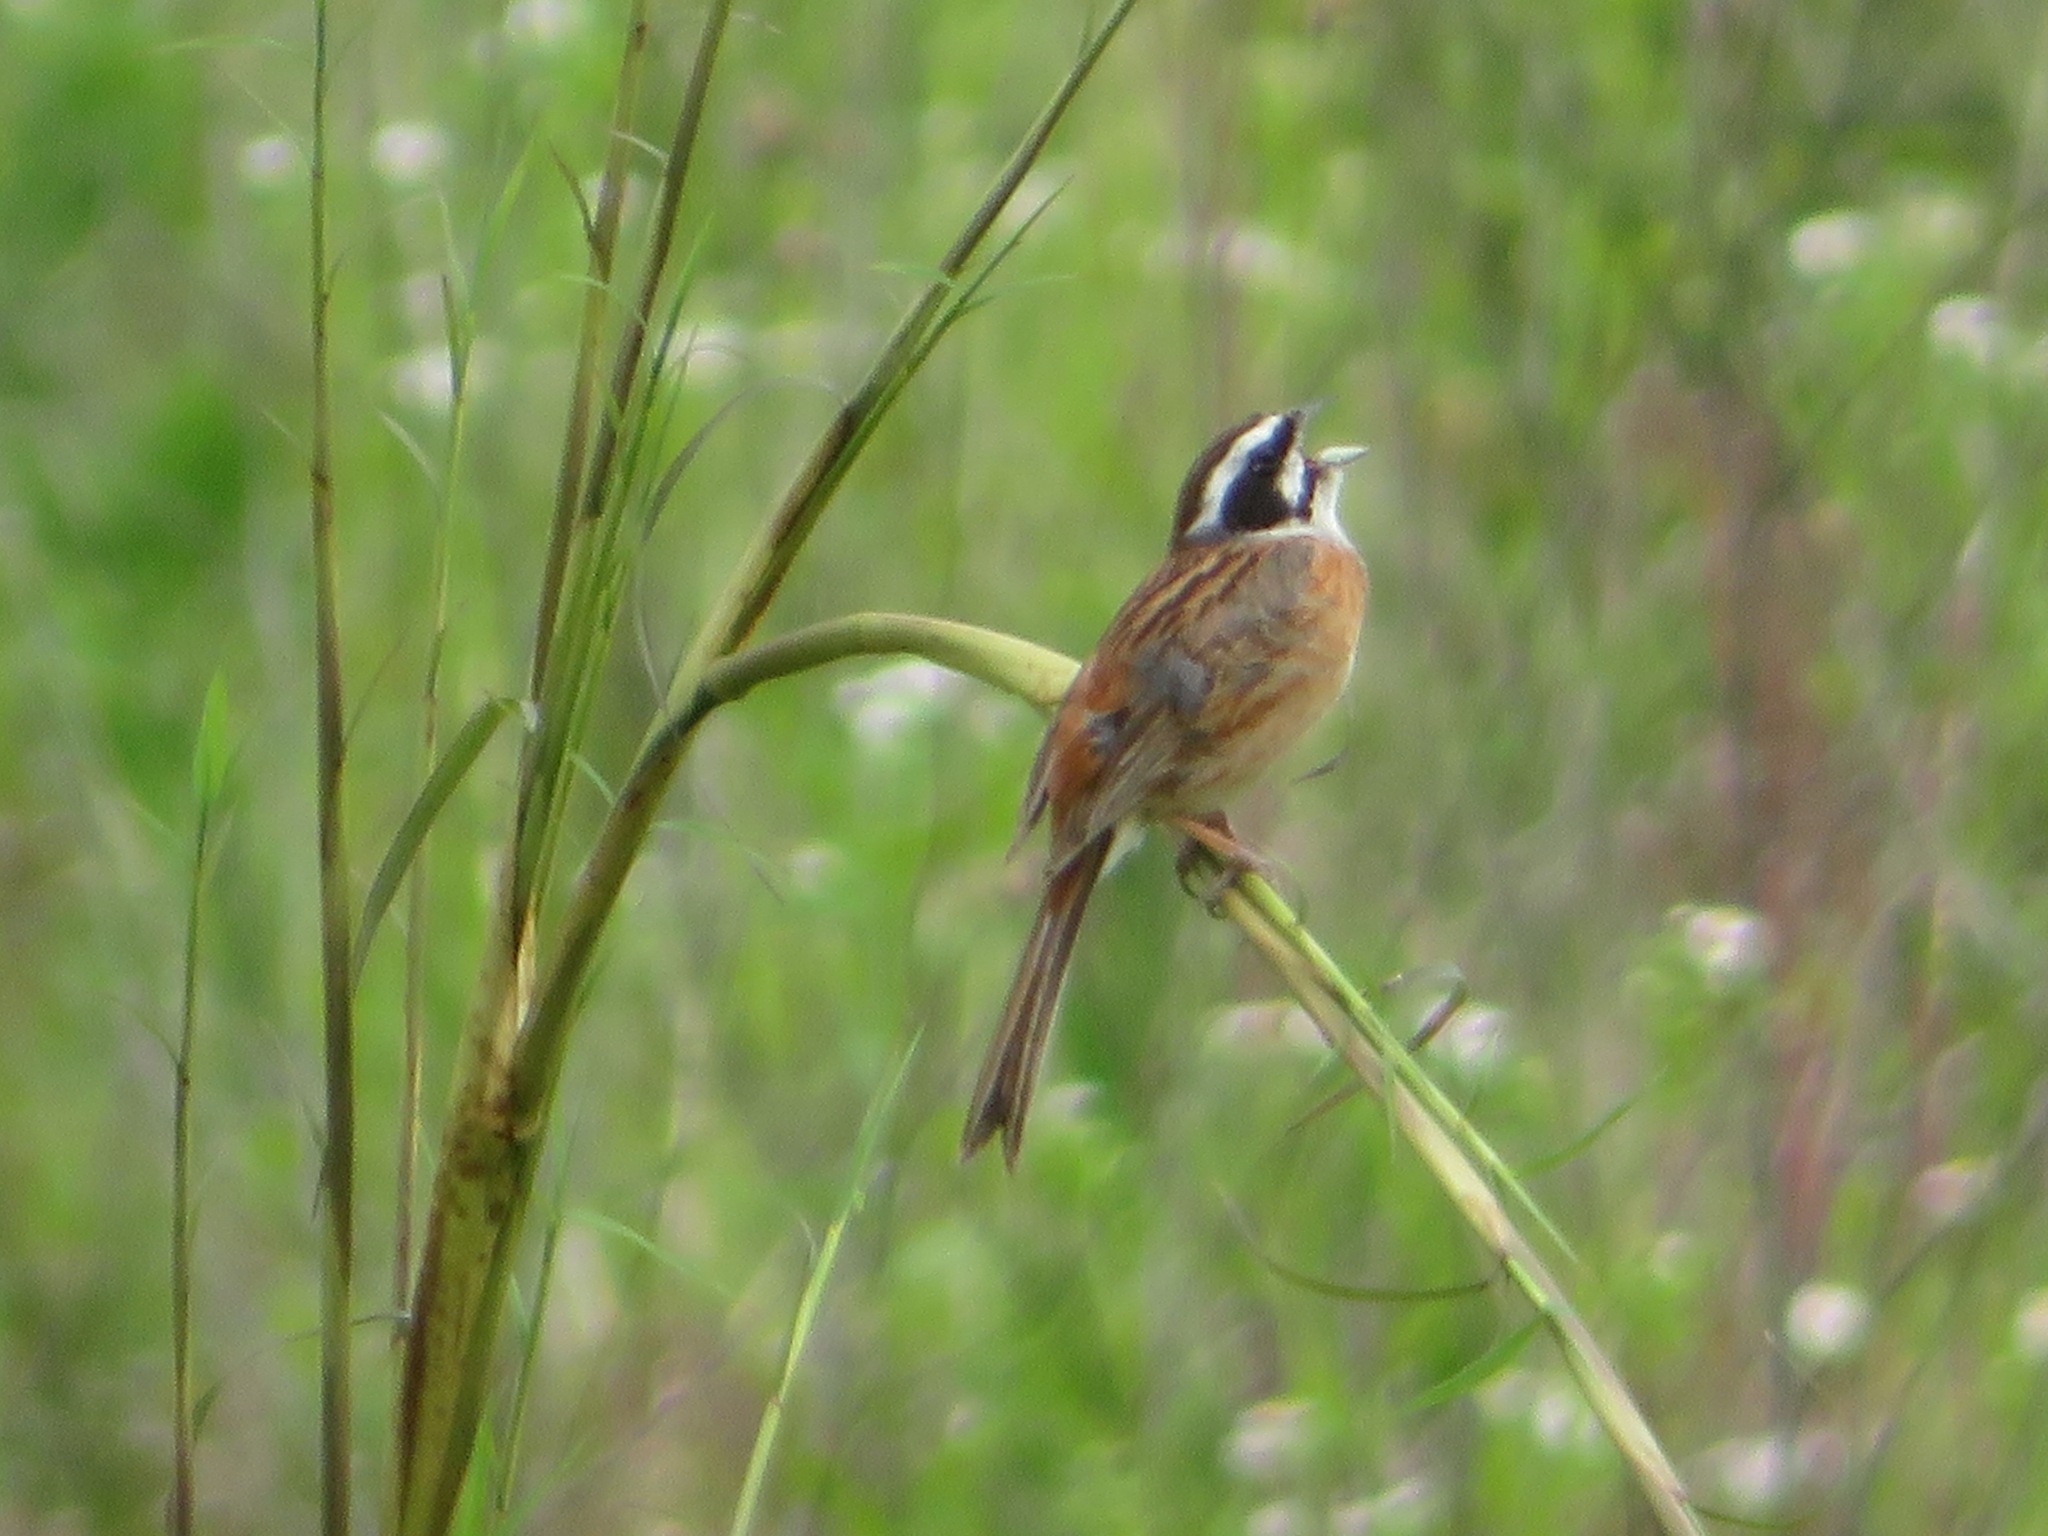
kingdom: Animalia
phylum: Chordata
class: Aves
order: Passeriformes
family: Emberizidae
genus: Emberiza
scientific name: Emberiza cioides
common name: Meadow bunting
